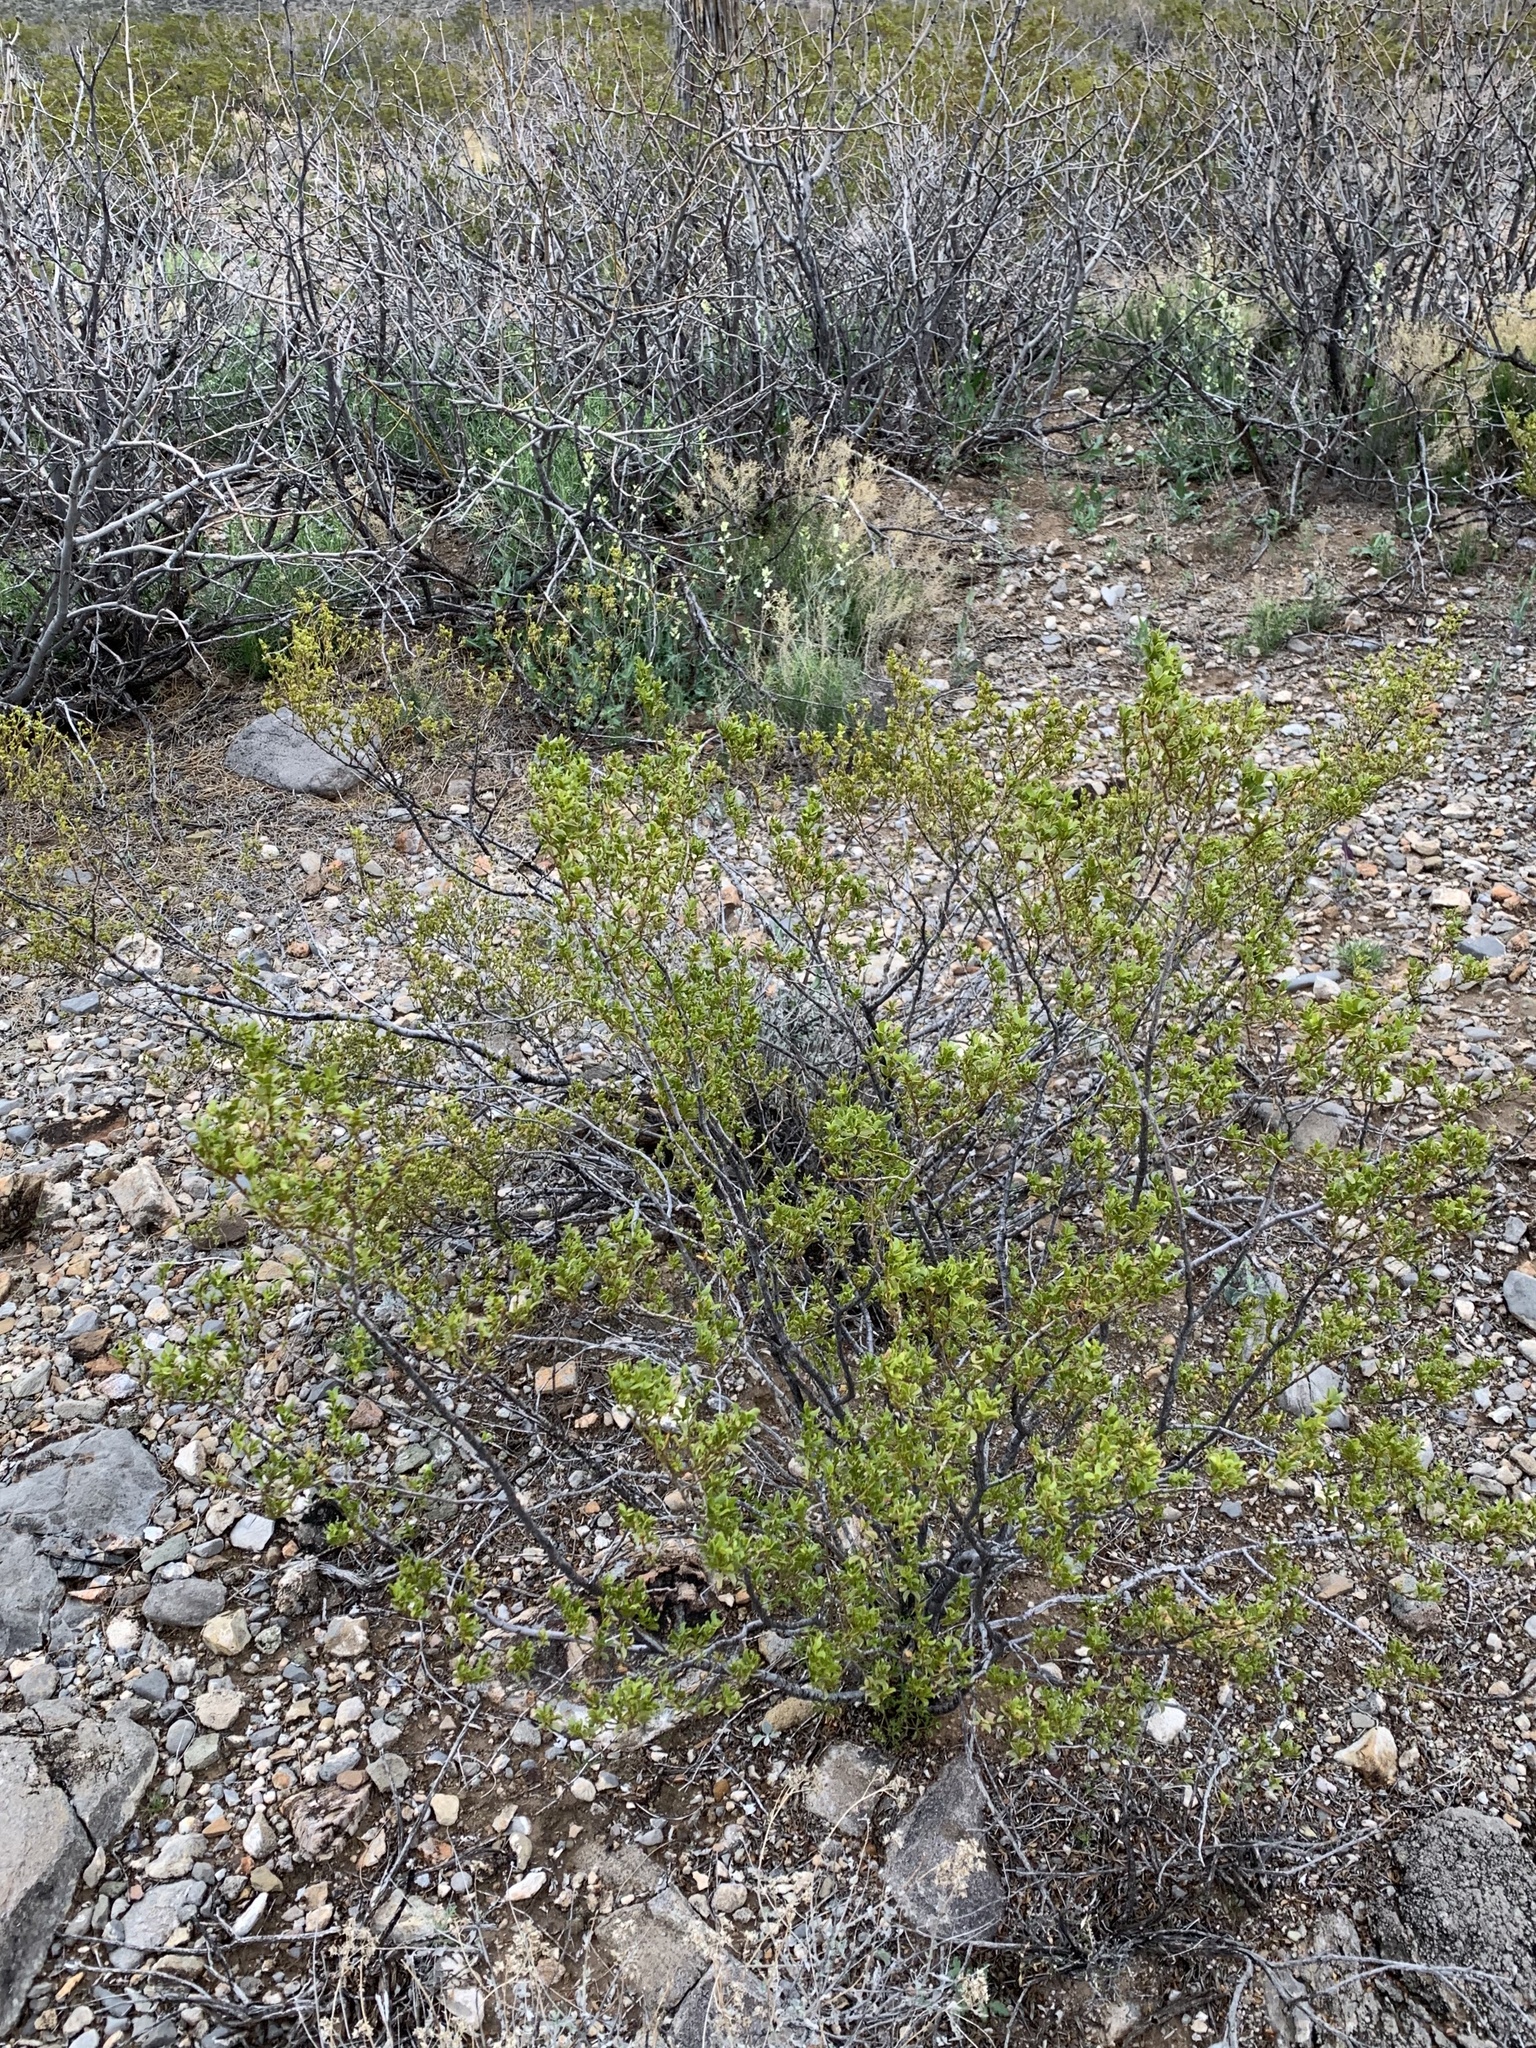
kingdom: Plantae
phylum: Tracheophyta
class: Magnoliopsida
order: Zygophyllales
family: Zygophyllaceae
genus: Larrea
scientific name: Larrea tridentata
